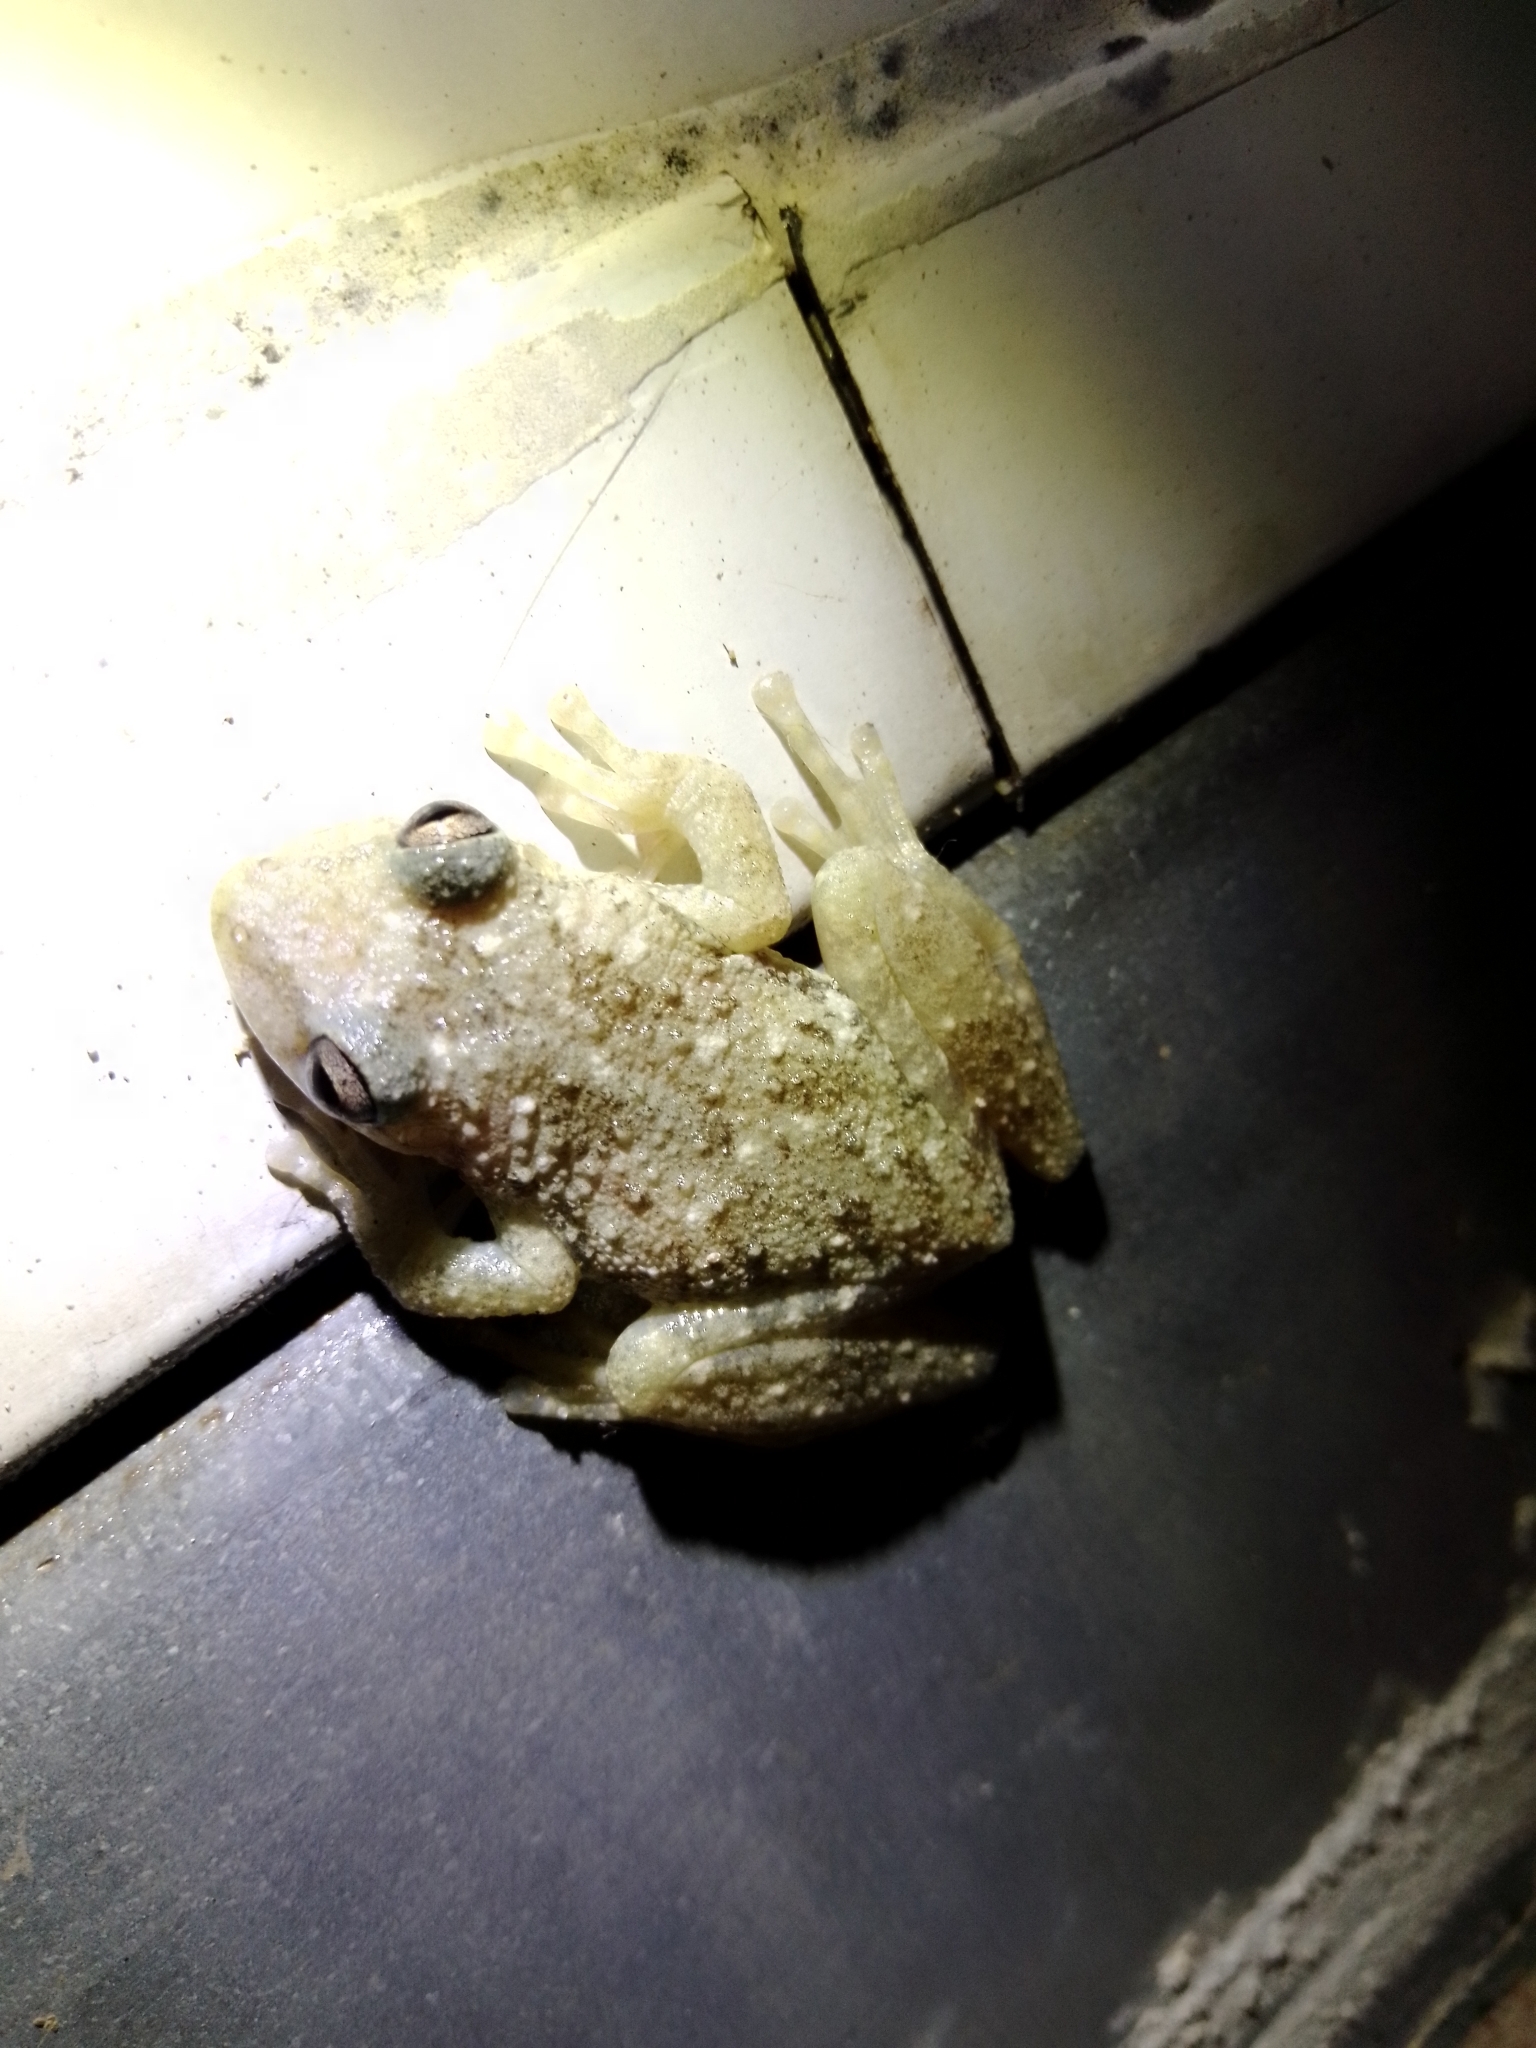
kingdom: Animalia
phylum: Chordata
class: Amphibia
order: Anura
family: Hylidae
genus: Scinax
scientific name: Scinax granulatus
